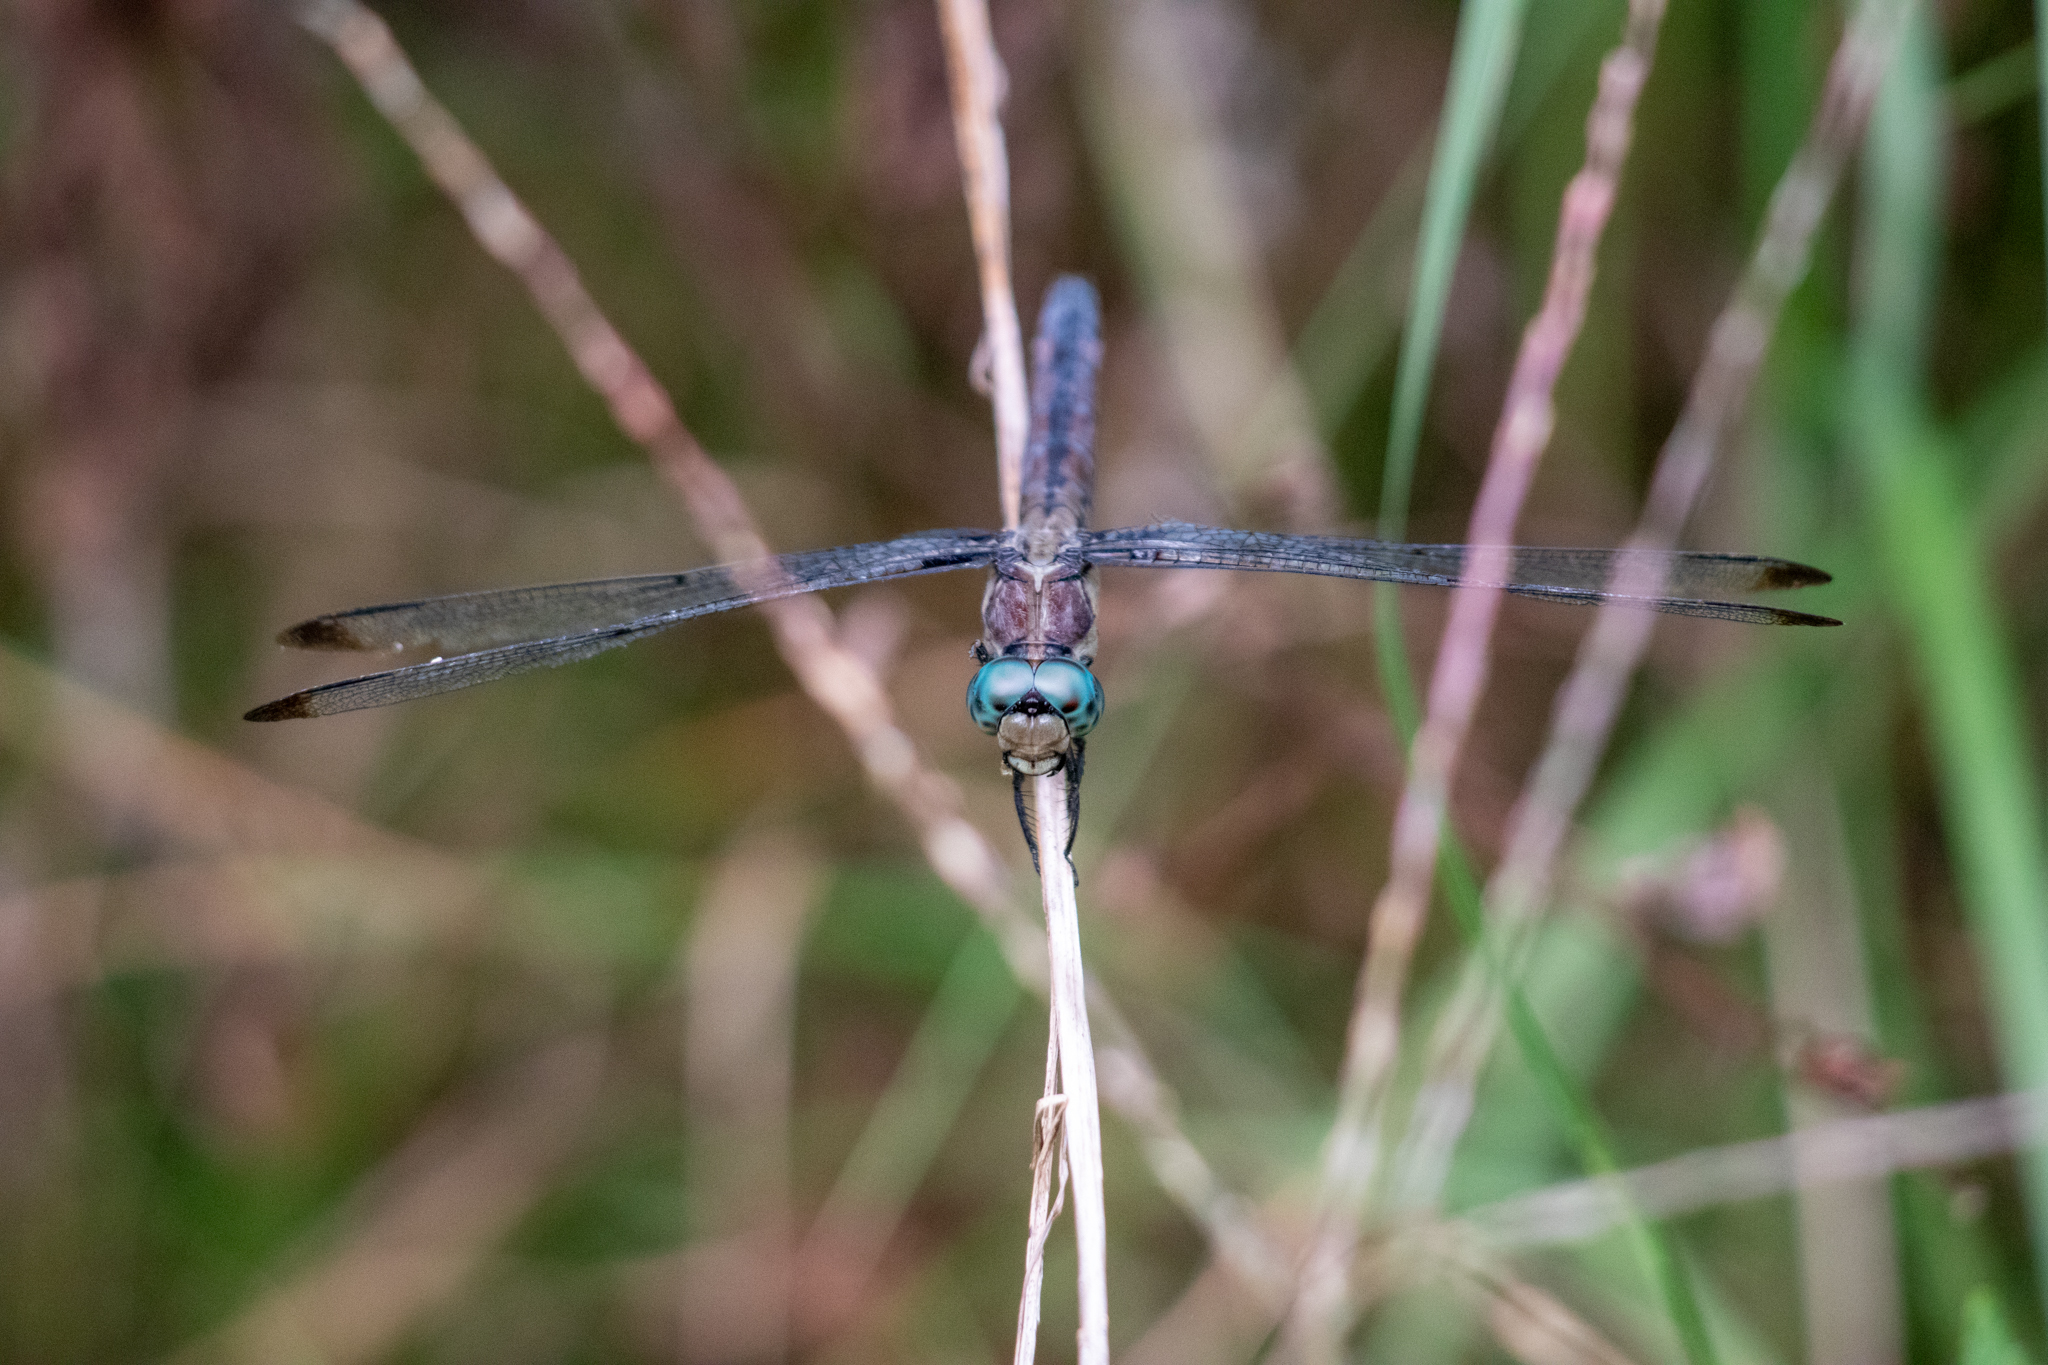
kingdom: Animalia
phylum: Arthropoda
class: Insecta
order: Odonata
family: Libellulidae
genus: Libellula
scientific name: Libellula vibrans
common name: Great blue skimmer
